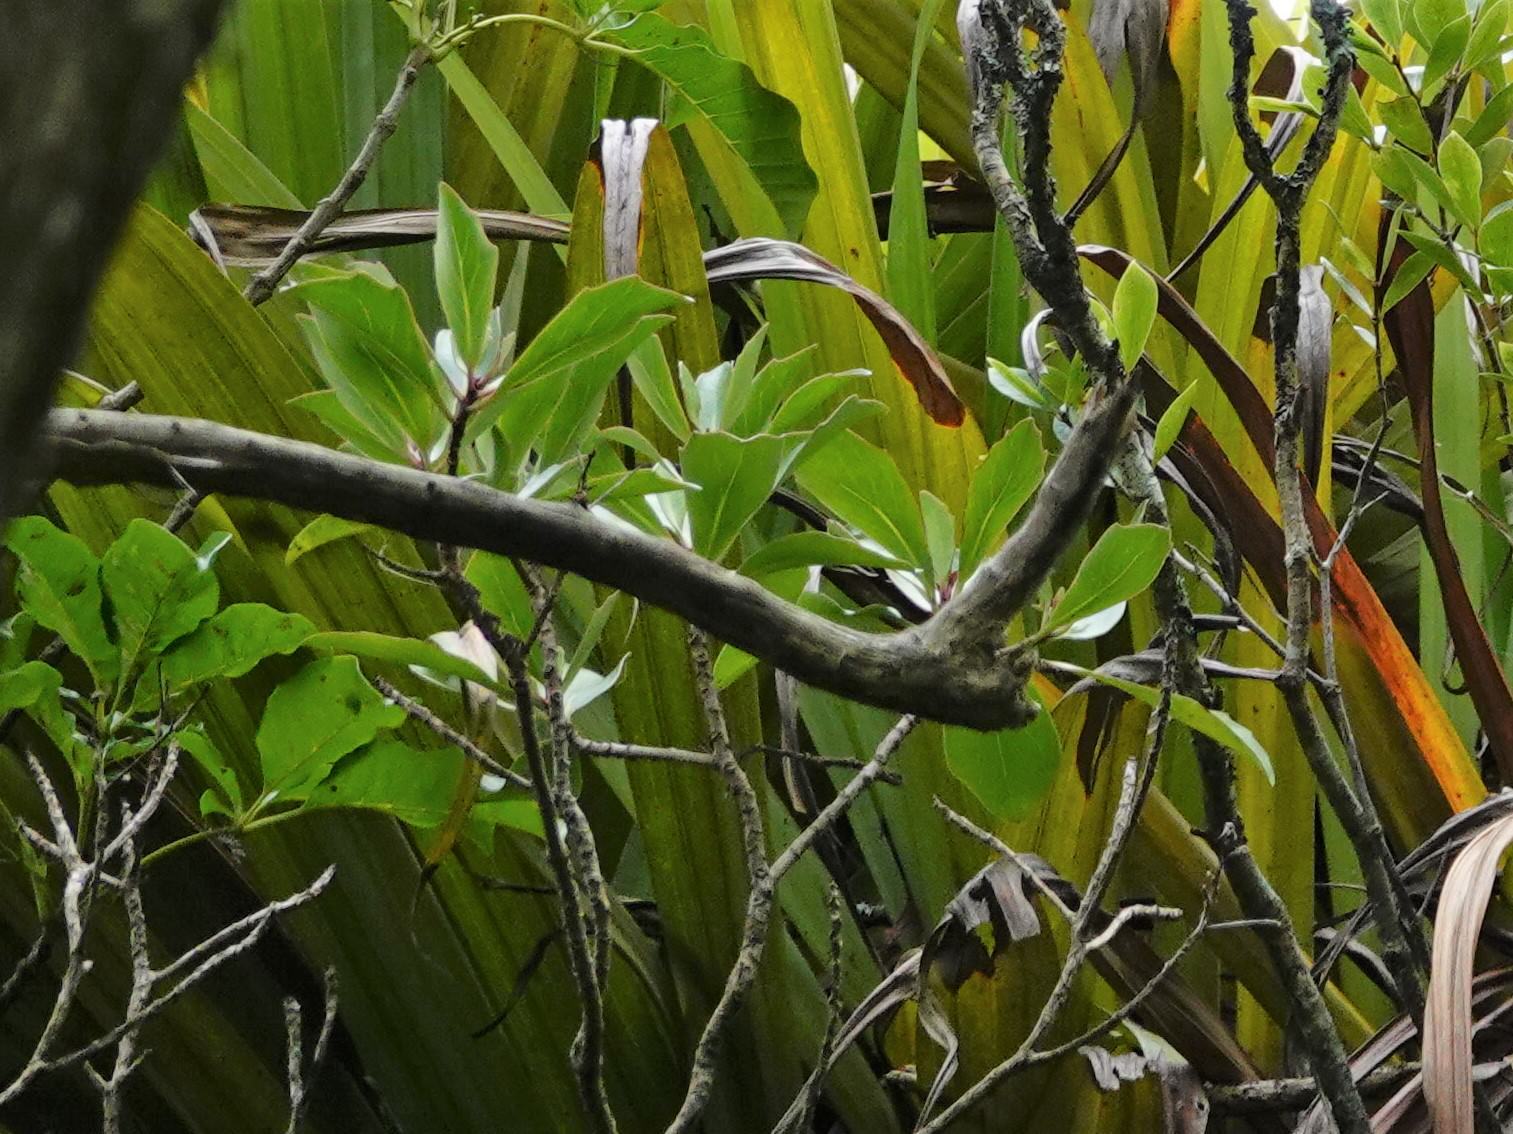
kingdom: Plantae
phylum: Tracheophyta
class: Magnoliopsida
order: Asterales
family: Asteraceae
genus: Brachyglottis
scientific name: Brachyglottis kirkii
